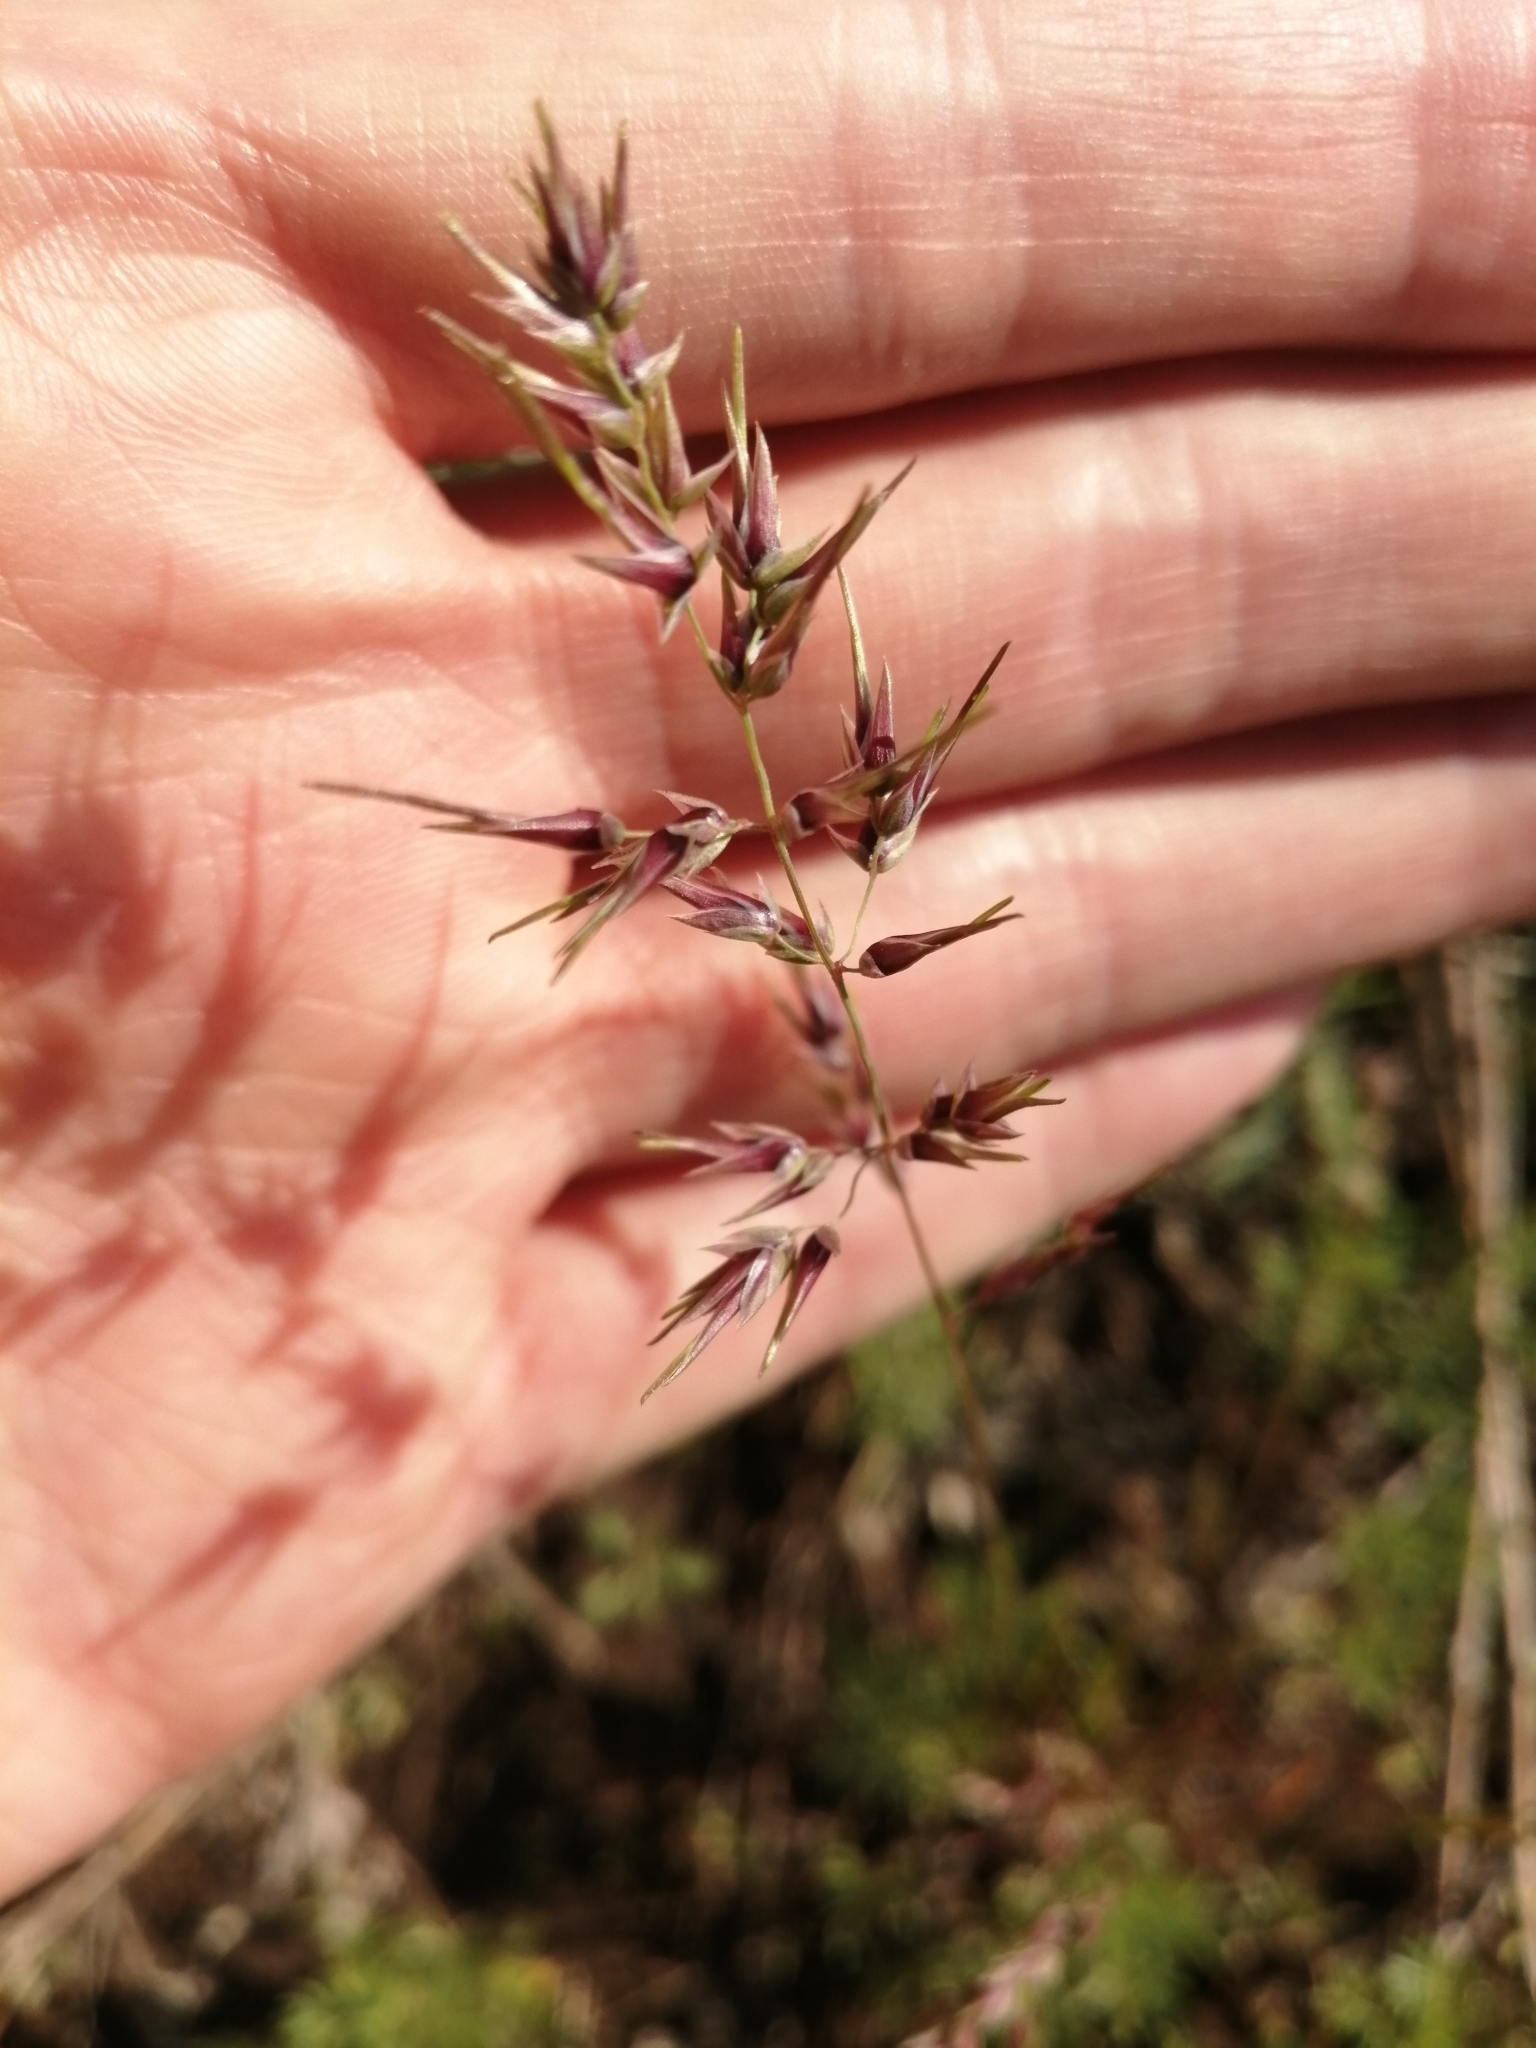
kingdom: Plantae
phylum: Tracheophyta
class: Liliopsida
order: Poales
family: Poaceae
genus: Poa
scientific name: Poa bulbosa
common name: Bulbous bluegrass
